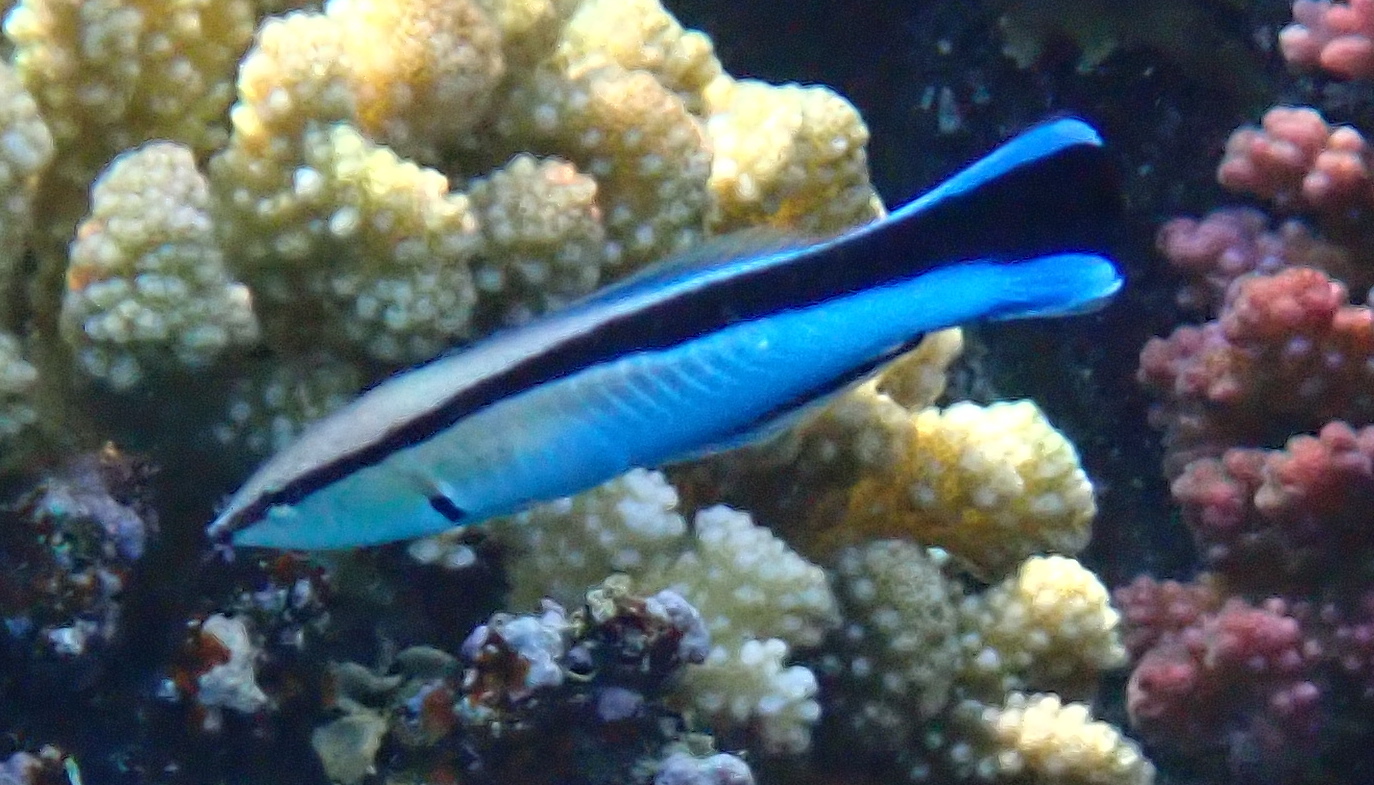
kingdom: Animalia
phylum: Chordata
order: Perciformes
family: Labridae
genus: Labroides
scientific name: Labroides dimidiatus
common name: Blue diesel wrasse
